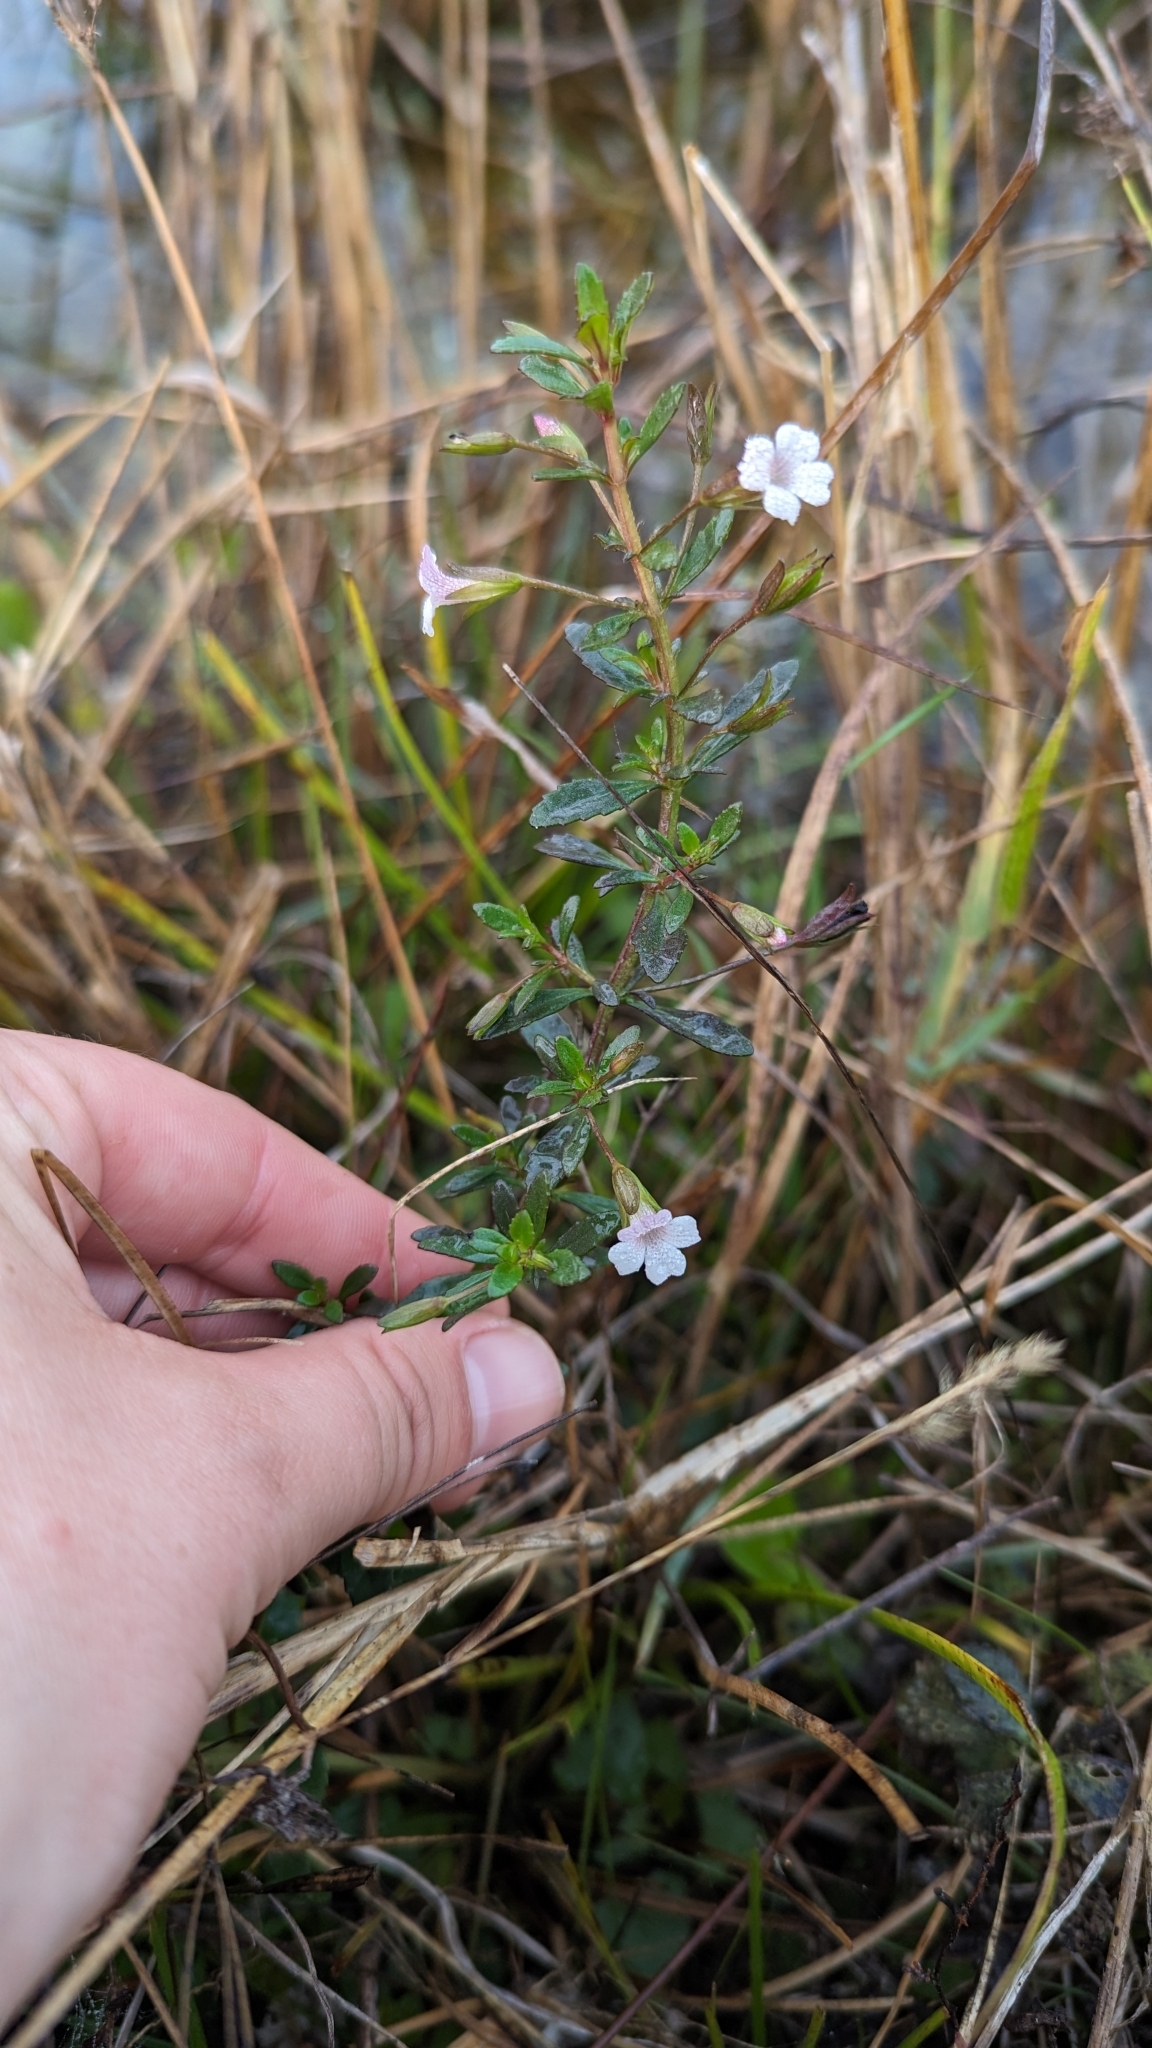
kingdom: Plantae
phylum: Tracheophyta
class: Magnoliopsida
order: Lamiales
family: Plantaginaceae
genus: Mecardonia
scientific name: Mecardonia acuminata
